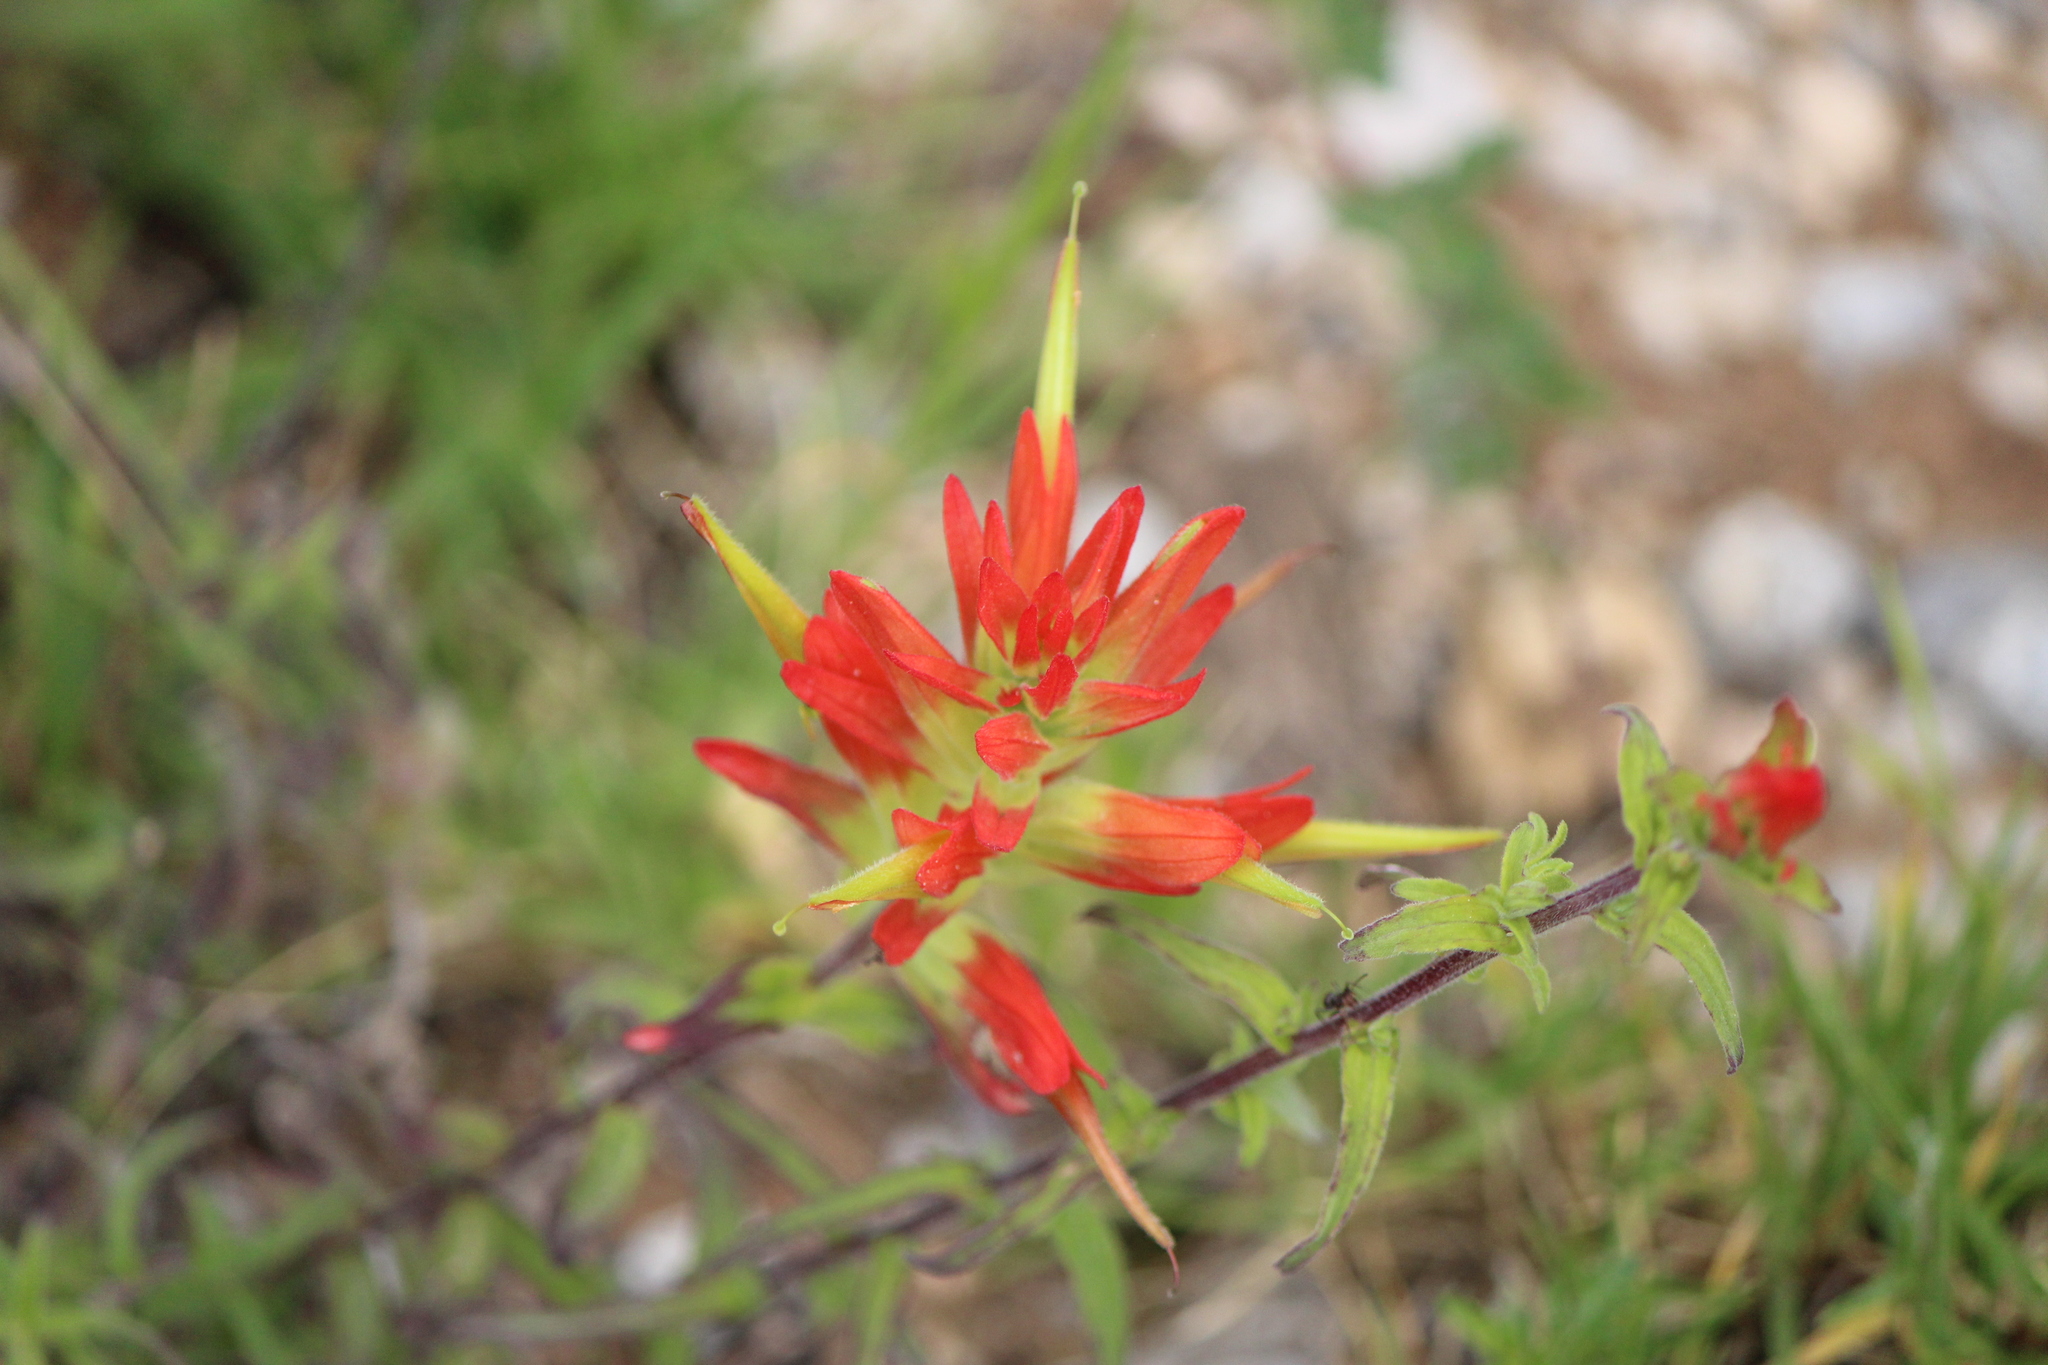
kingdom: Plantae
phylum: Tracheophyta
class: Magnoliopsida
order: Lamiales
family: Orobanchaceae
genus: Castilleja
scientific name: Castilleja tenuiflora
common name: Santa catalina indian paintbrush
